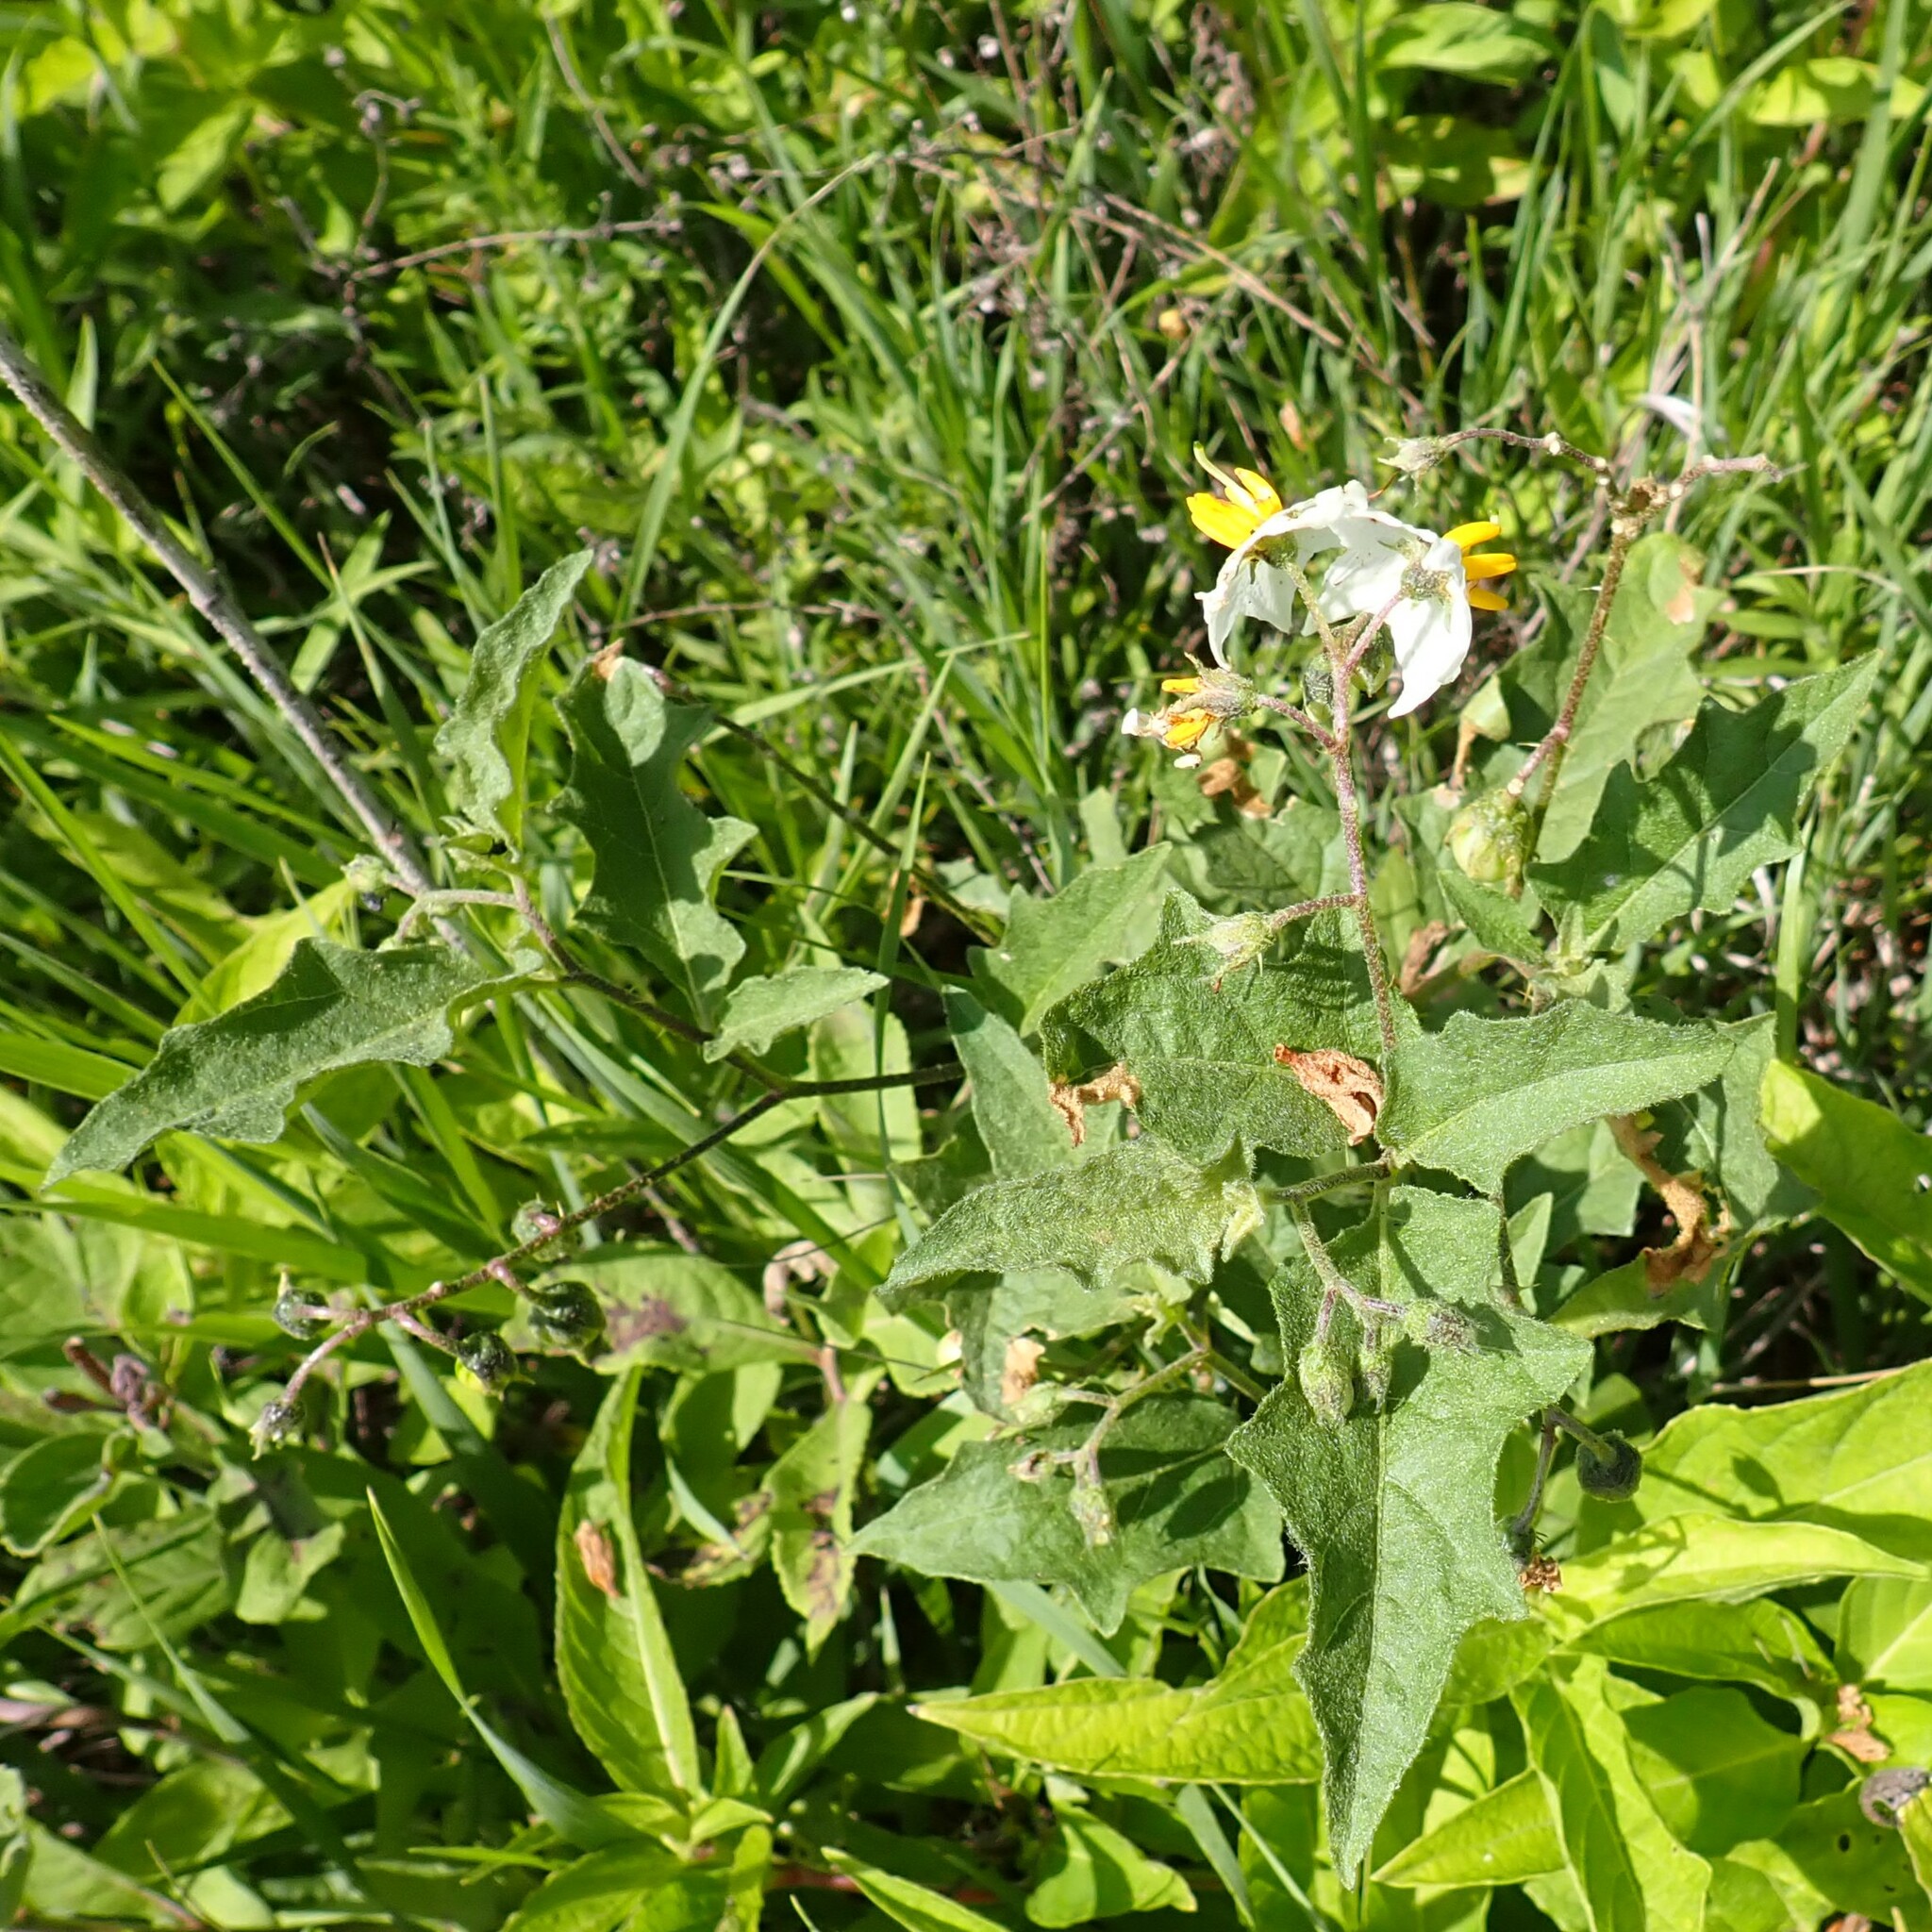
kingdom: Plantae
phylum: Tracheophyta
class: Magnoliopsida
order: Solanales
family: Solanaceae
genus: Solanum
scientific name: Solanum carolinense
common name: Horse-nettle
